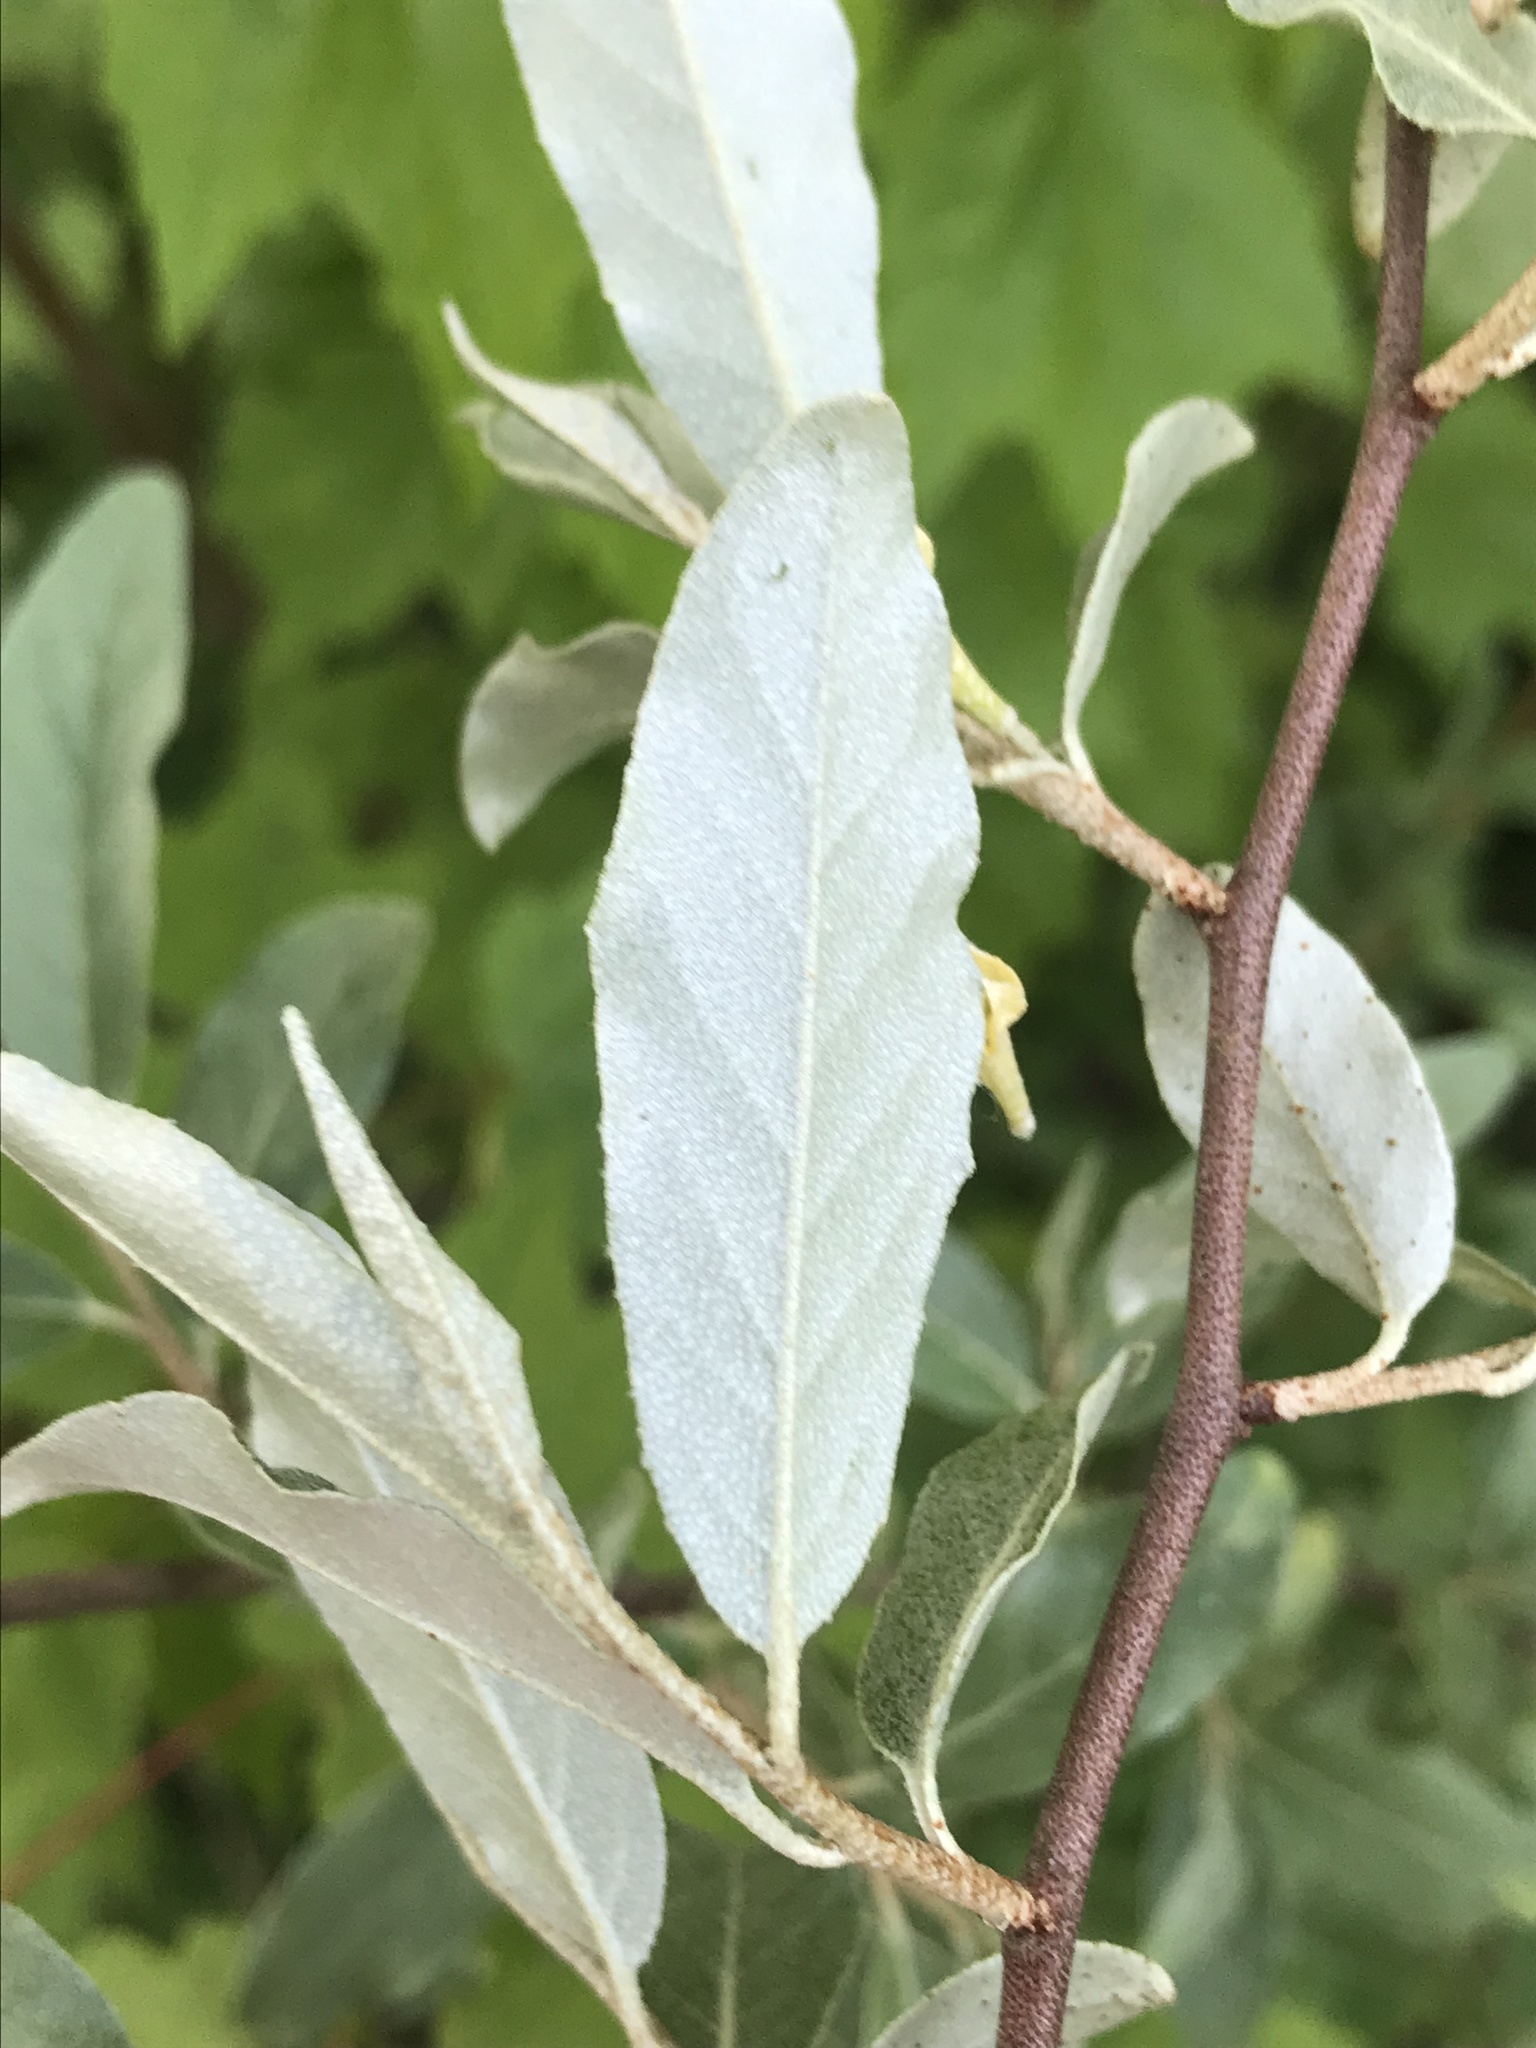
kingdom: Plantae
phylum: Tracheophyta
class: Magnoliopsida
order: Rosales
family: Elaeagnaceae
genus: Elaeagnus
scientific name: Elaeagnus umbellata
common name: Autumn olive
